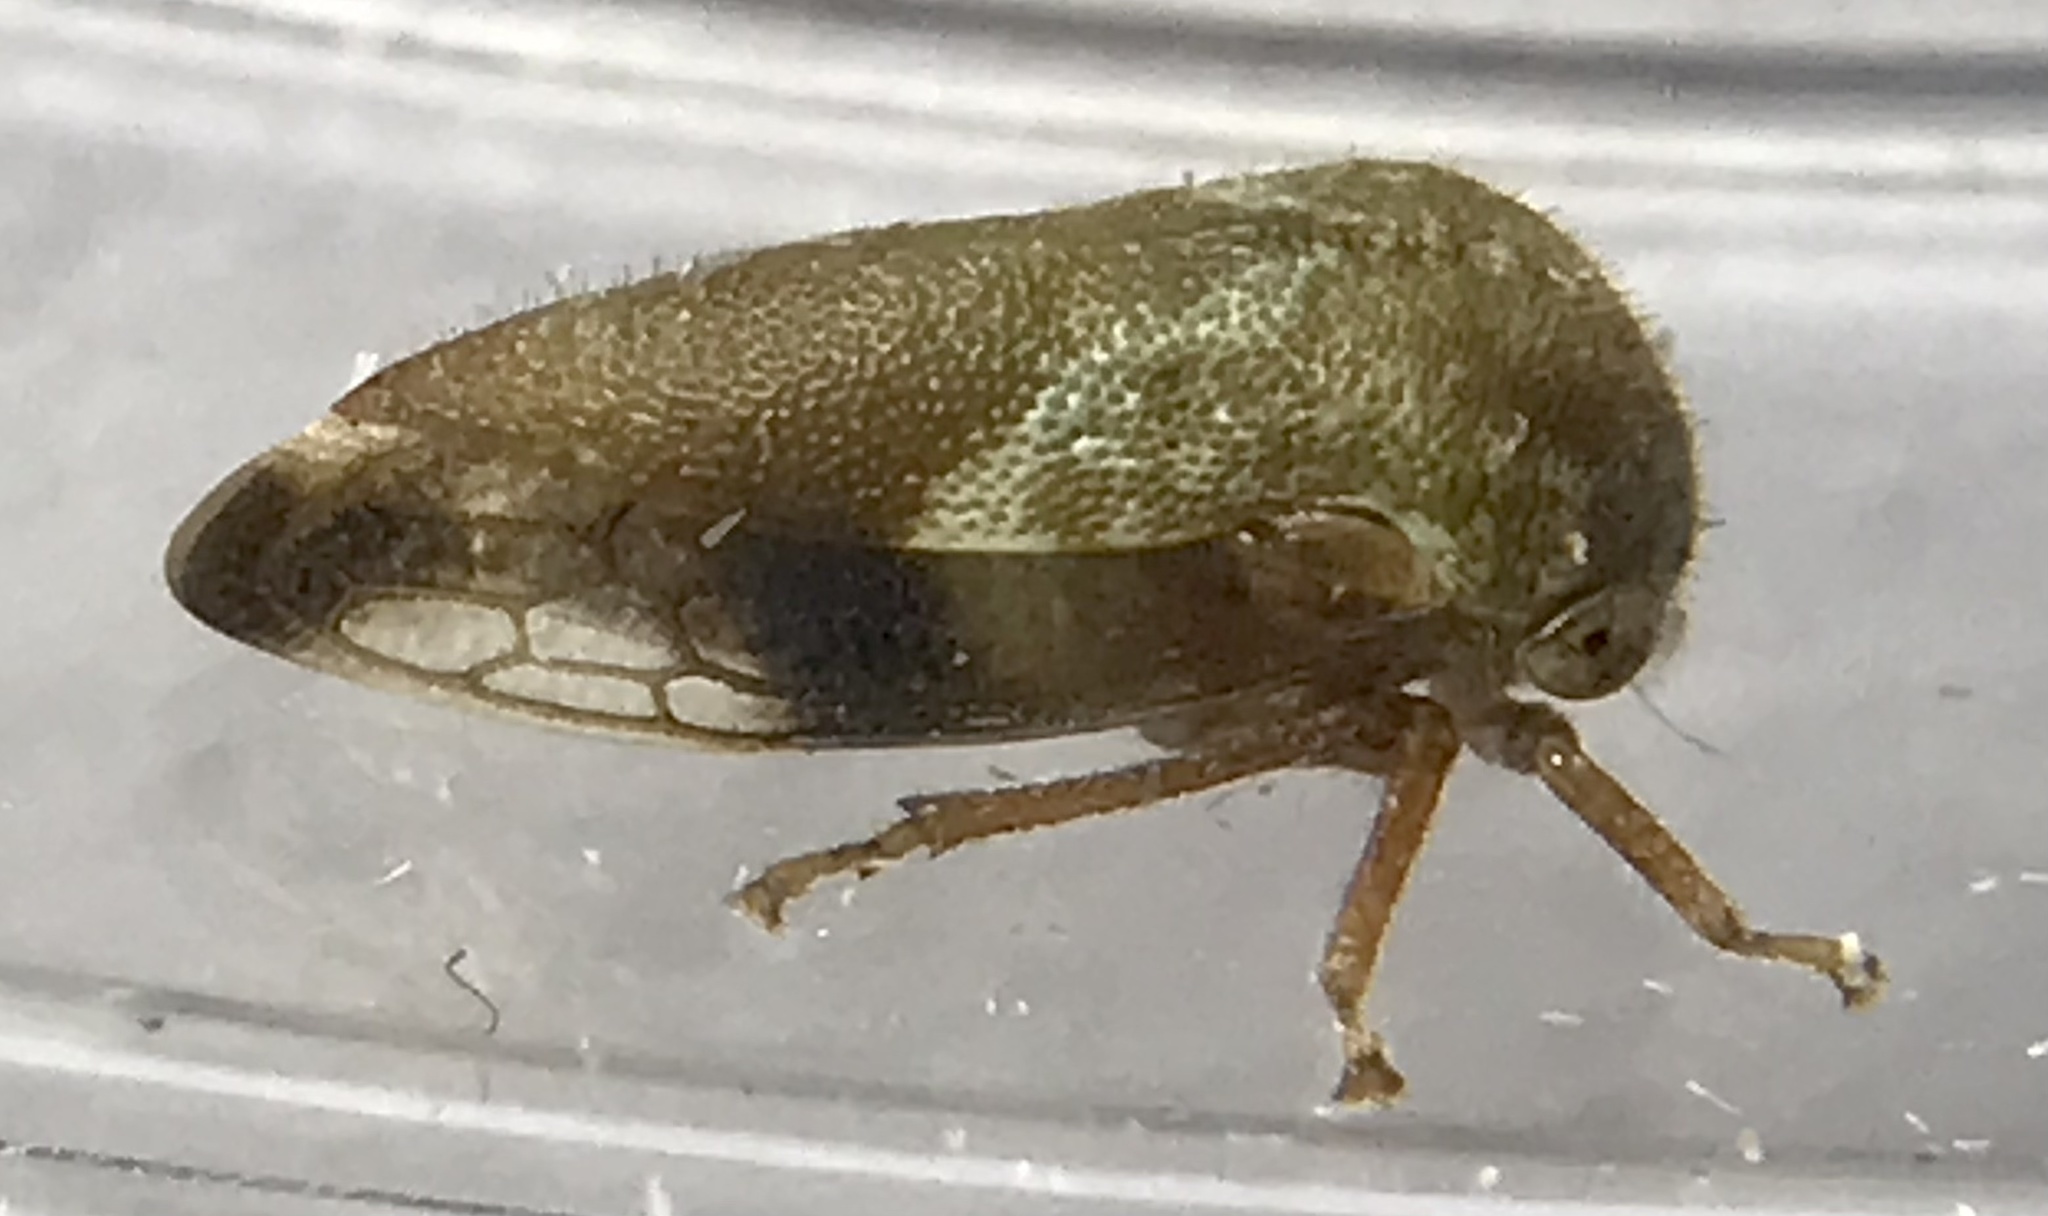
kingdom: Animalia
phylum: Arthropoda
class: Insecta
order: Hemiptera
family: Membracidae
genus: Ophiderma
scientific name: Ophiderma definita
